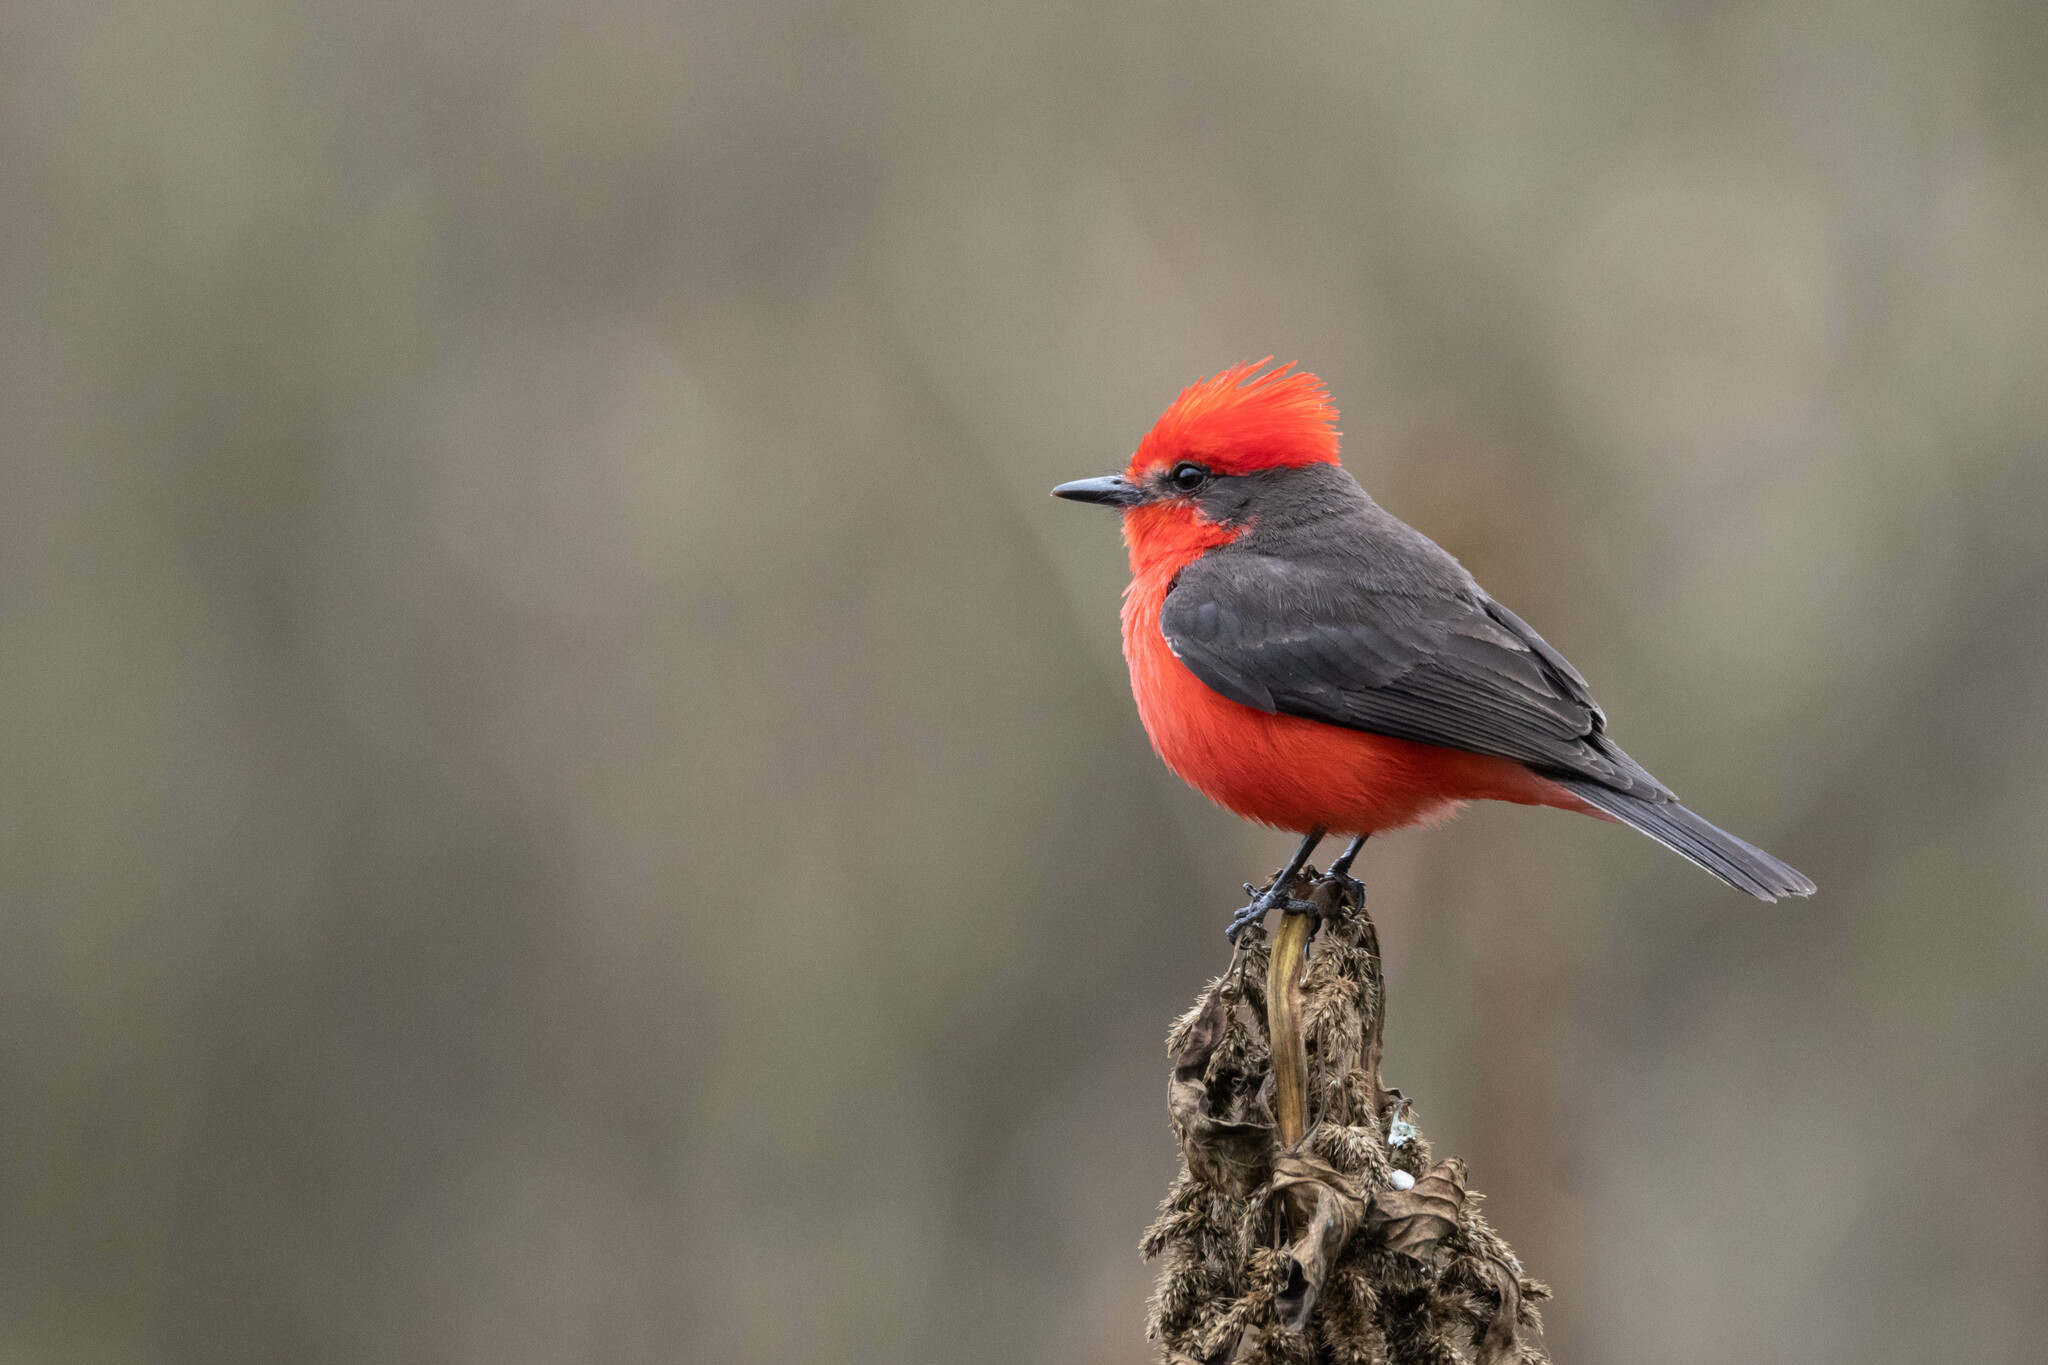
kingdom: Animalia
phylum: Chordata
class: Aves
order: Passeriformes
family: Tyrannidae
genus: Pyrocephalus
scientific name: Pyrocephalus rubinus
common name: Vermilion flycatcher
